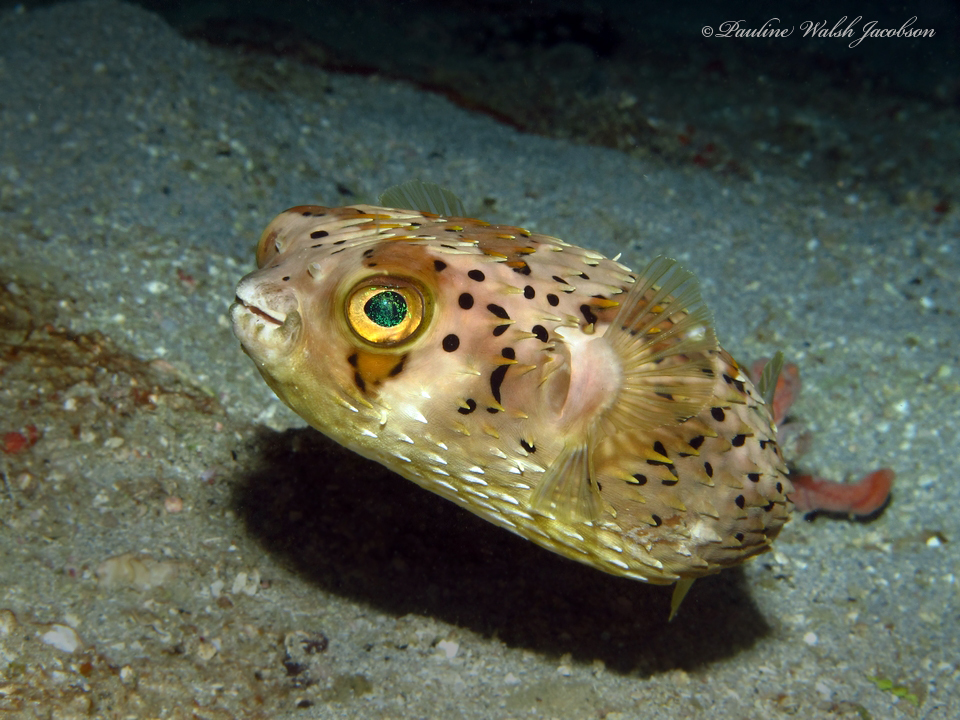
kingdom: Animalia
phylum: Chordata
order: Tetraodontiformes
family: Diodontidae
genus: Diodon
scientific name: Diodon holocanthus
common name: Balloonfish
